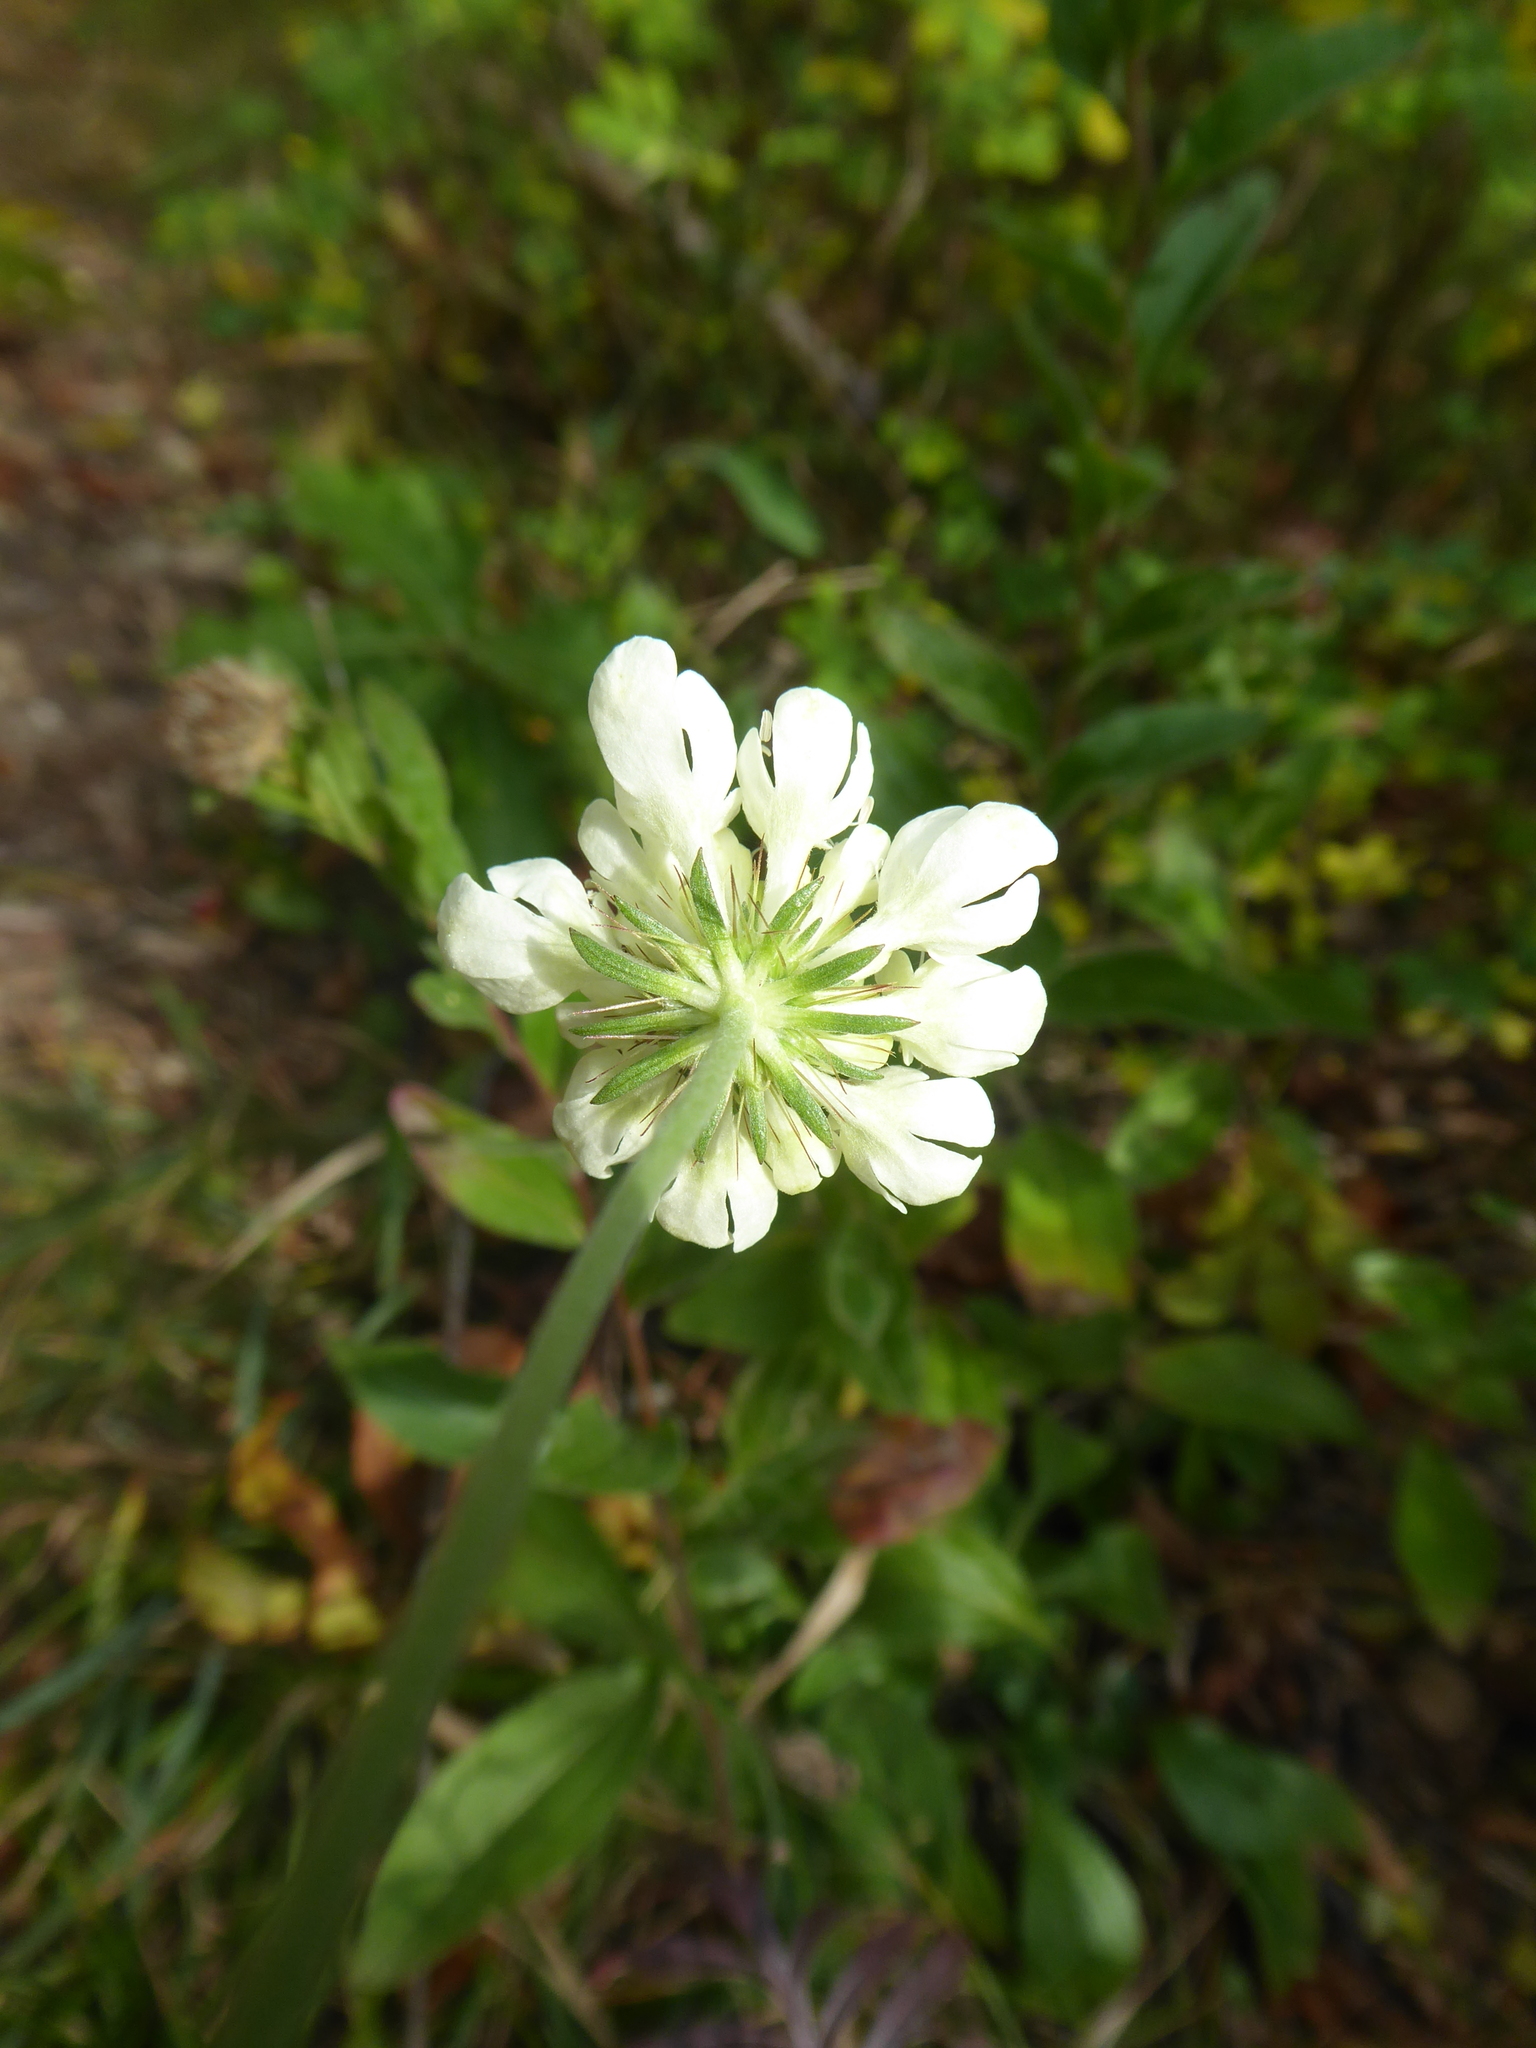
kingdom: Plantae
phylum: Tracheophyta
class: Magnoliopsida
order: Dipsacales
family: Caprifoliaceae
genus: Scabiosa
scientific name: Scabiosa ochroleuca
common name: Cream pincushions
